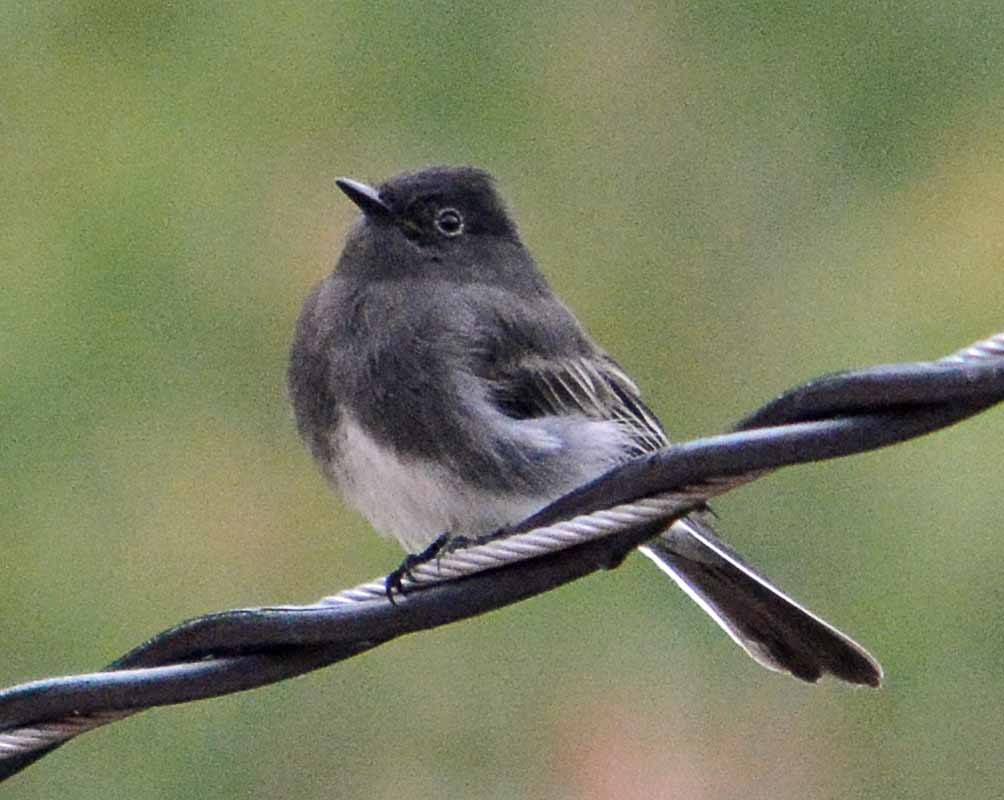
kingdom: Animalia
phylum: Chordata
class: Aves
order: Passeriformes
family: Tyrannidae
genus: Sayornis
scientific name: Sayornis nigricans
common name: Black phoebe
